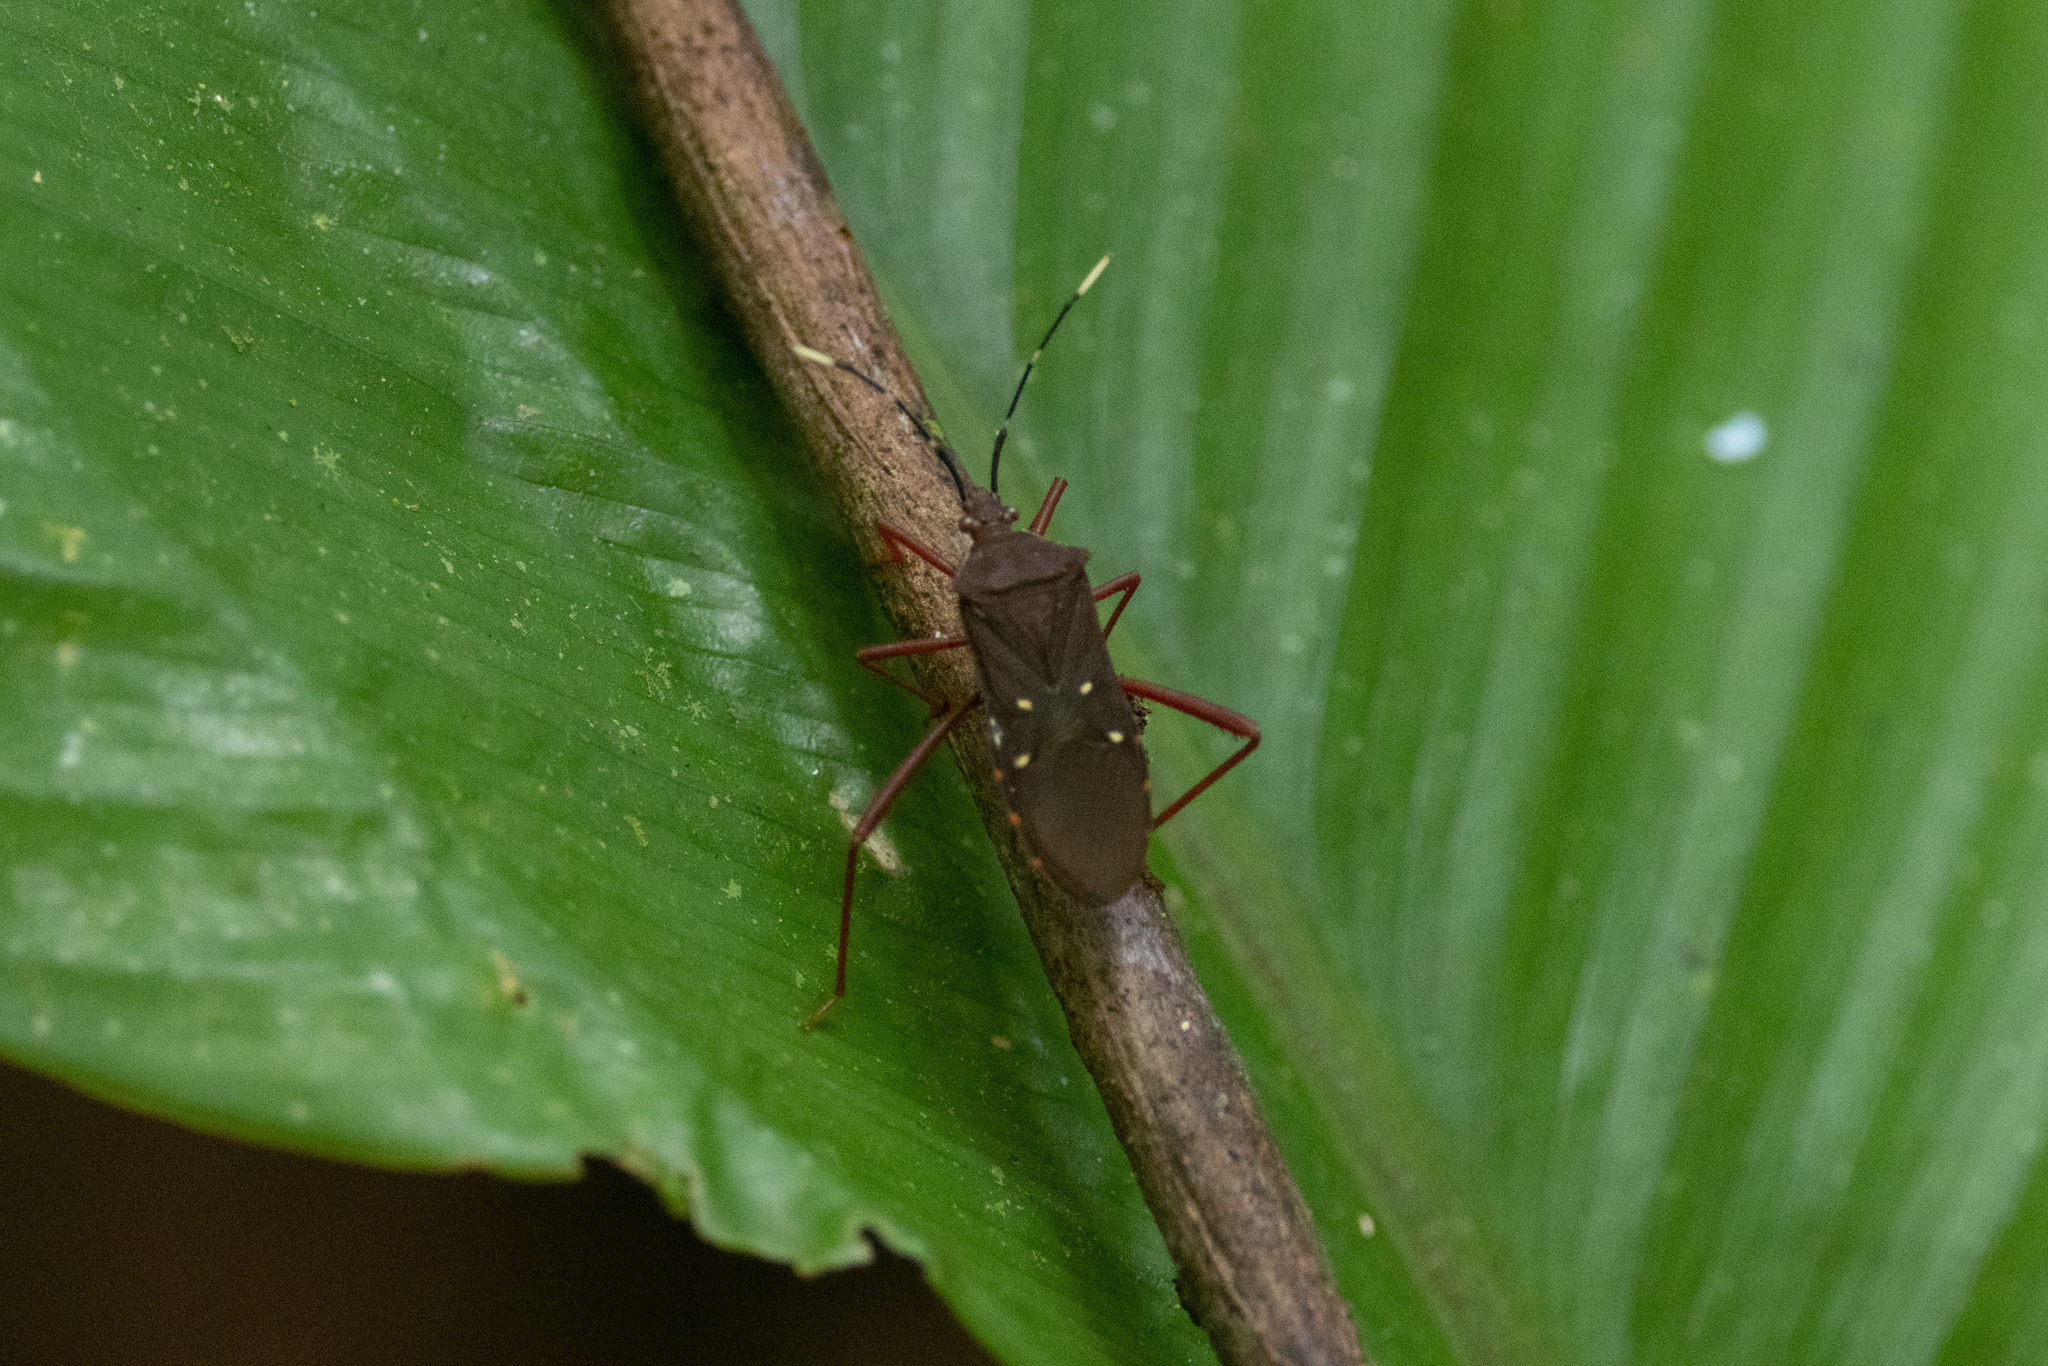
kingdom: Animalia
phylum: Arthropoda
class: Insecta
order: Hemiptera
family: Coreidae
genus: Leptoscelis
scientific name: Leptoscelis quadrisignatus
